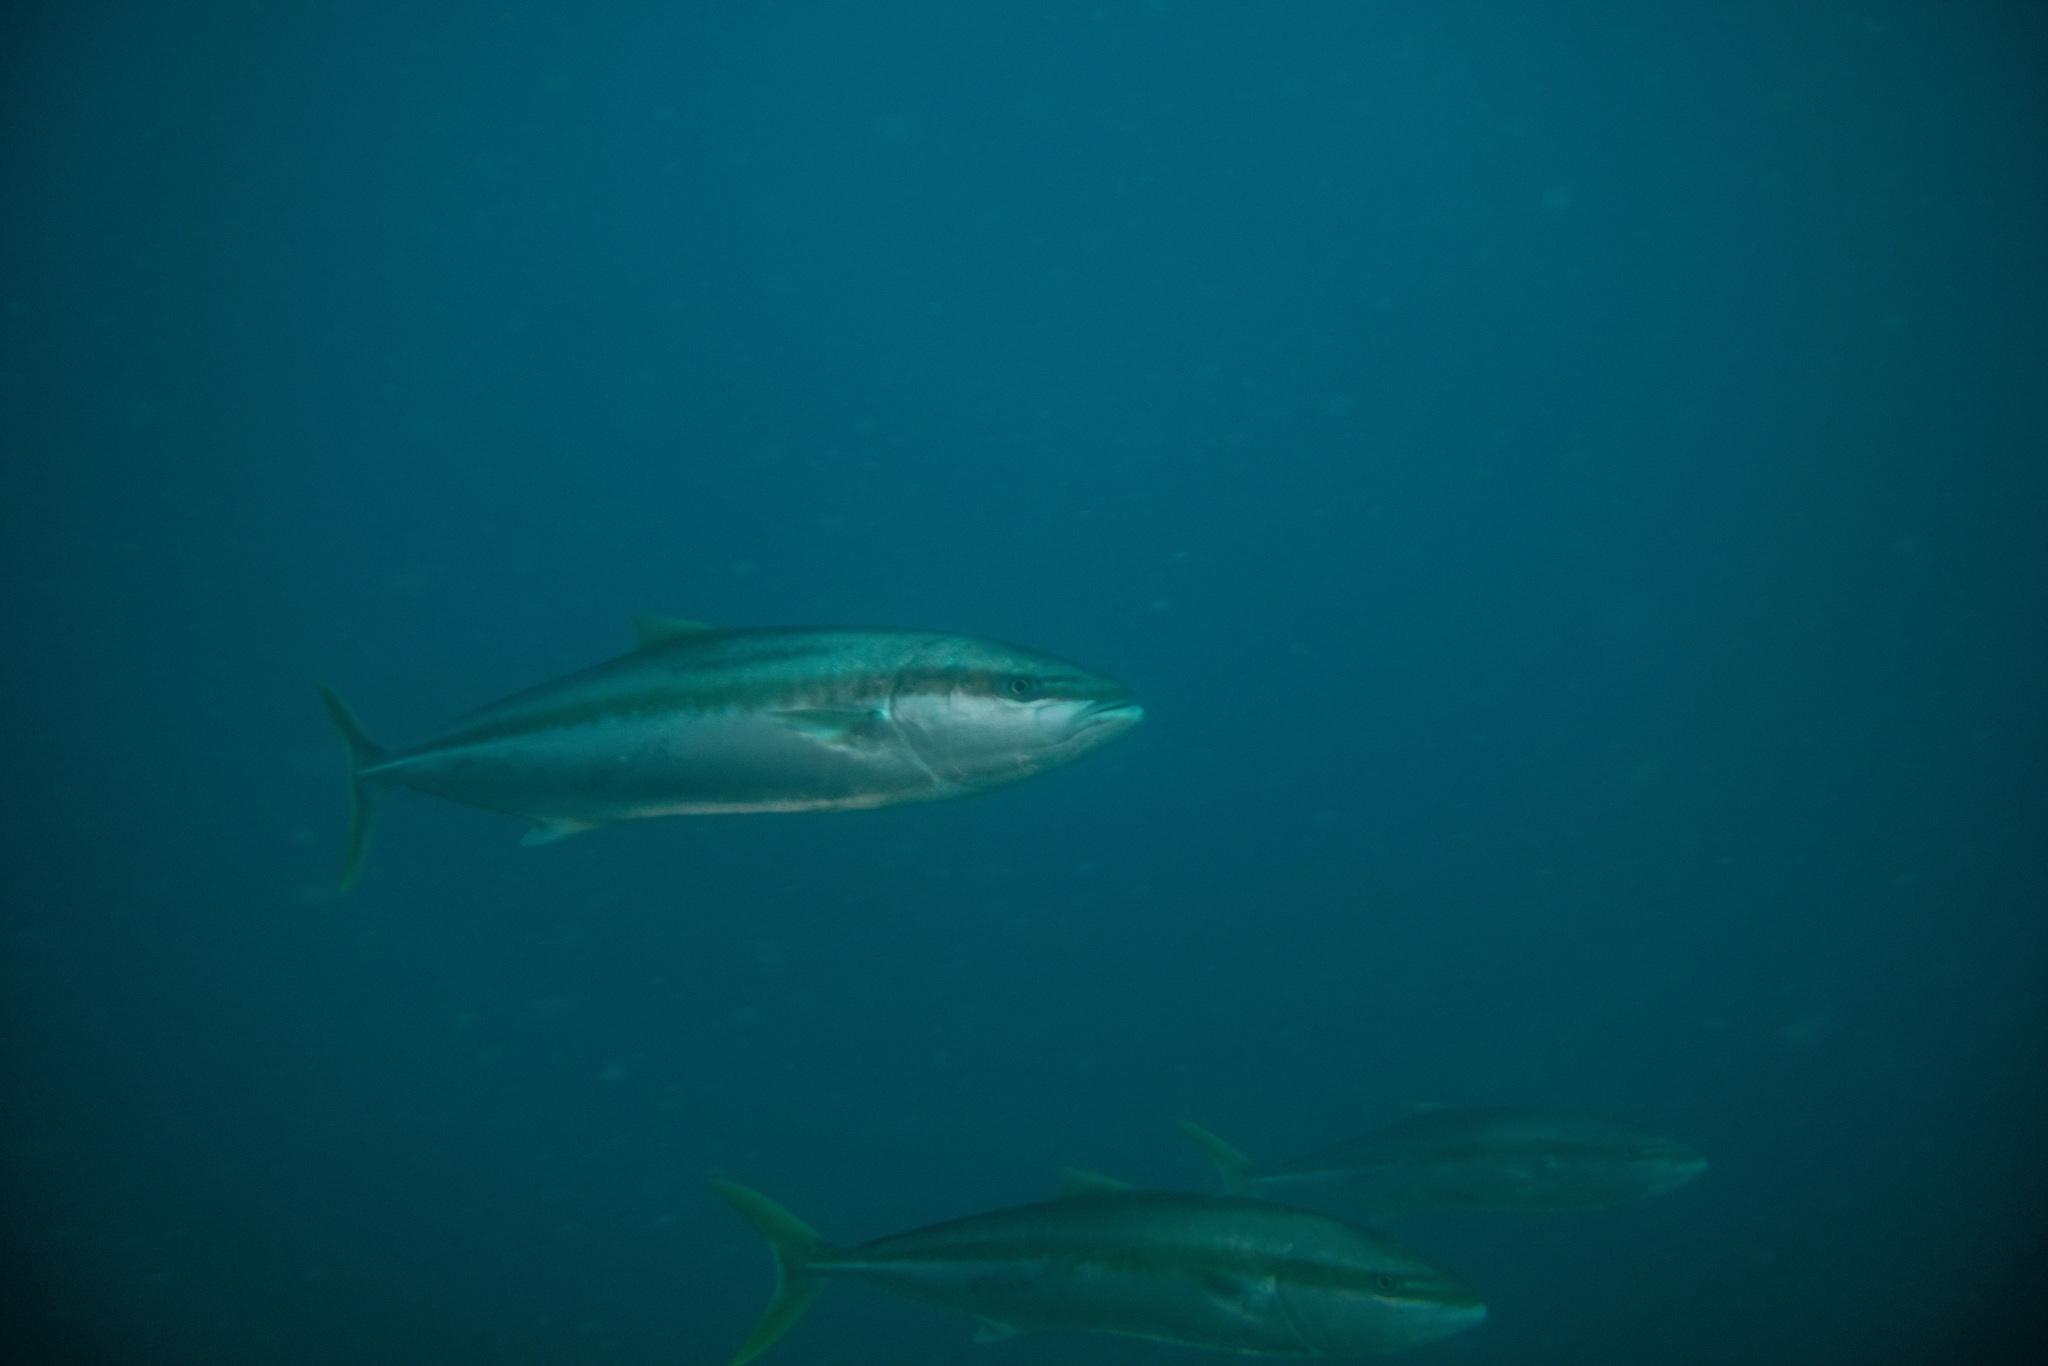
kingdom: Animalia
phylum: Chordata
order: Perciformes
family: Carangidae
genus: Seriola
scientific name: Seriola lalandi
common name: Yellowtail kingfish
